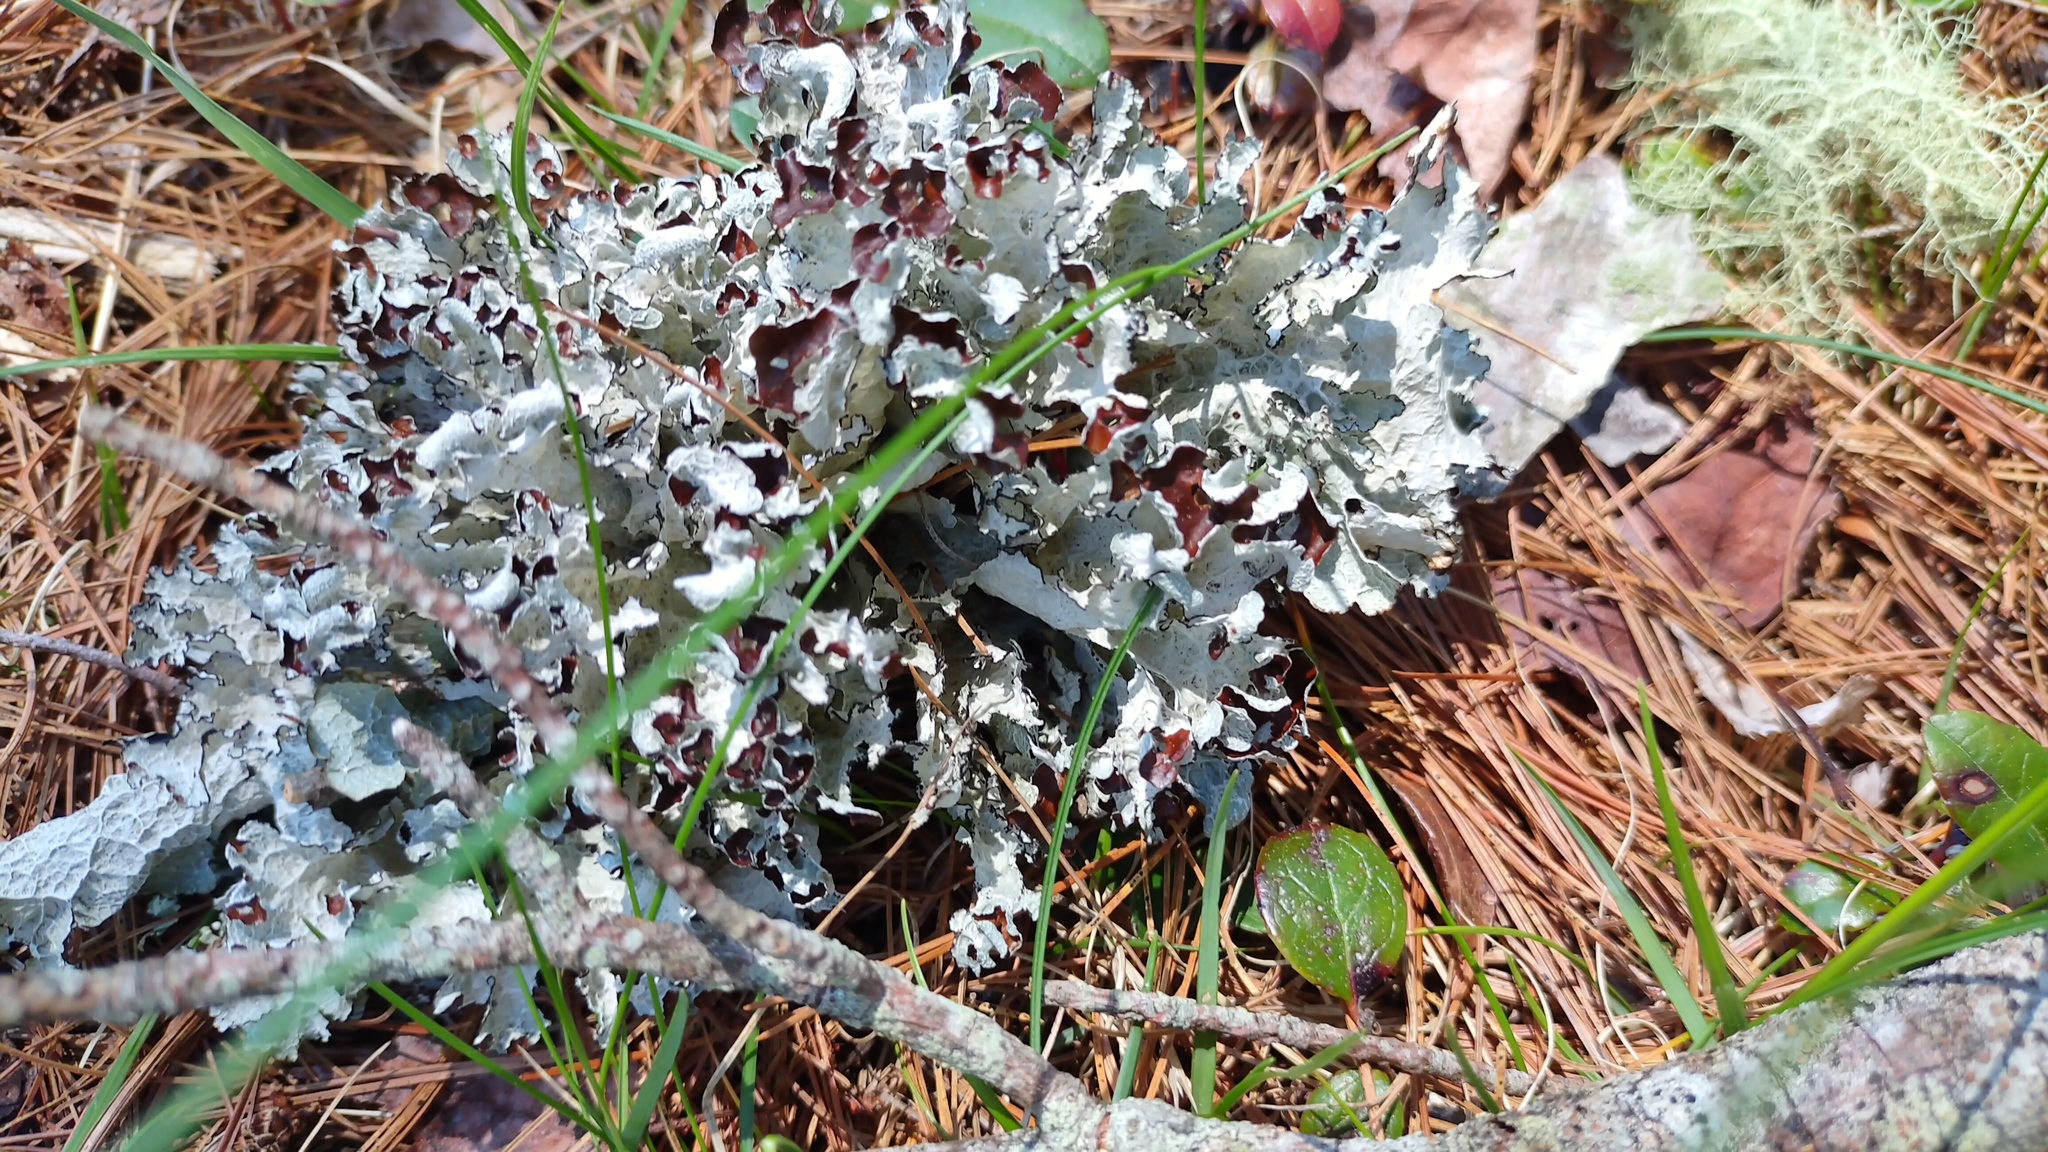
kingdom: Fungi
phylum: Ascomycota
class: Lecanoromycetes
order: Lecanorales
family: Parmeliaceae
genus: Platismatia
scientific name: Platismatia tuckermanii
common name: Crumpled rag lichen
